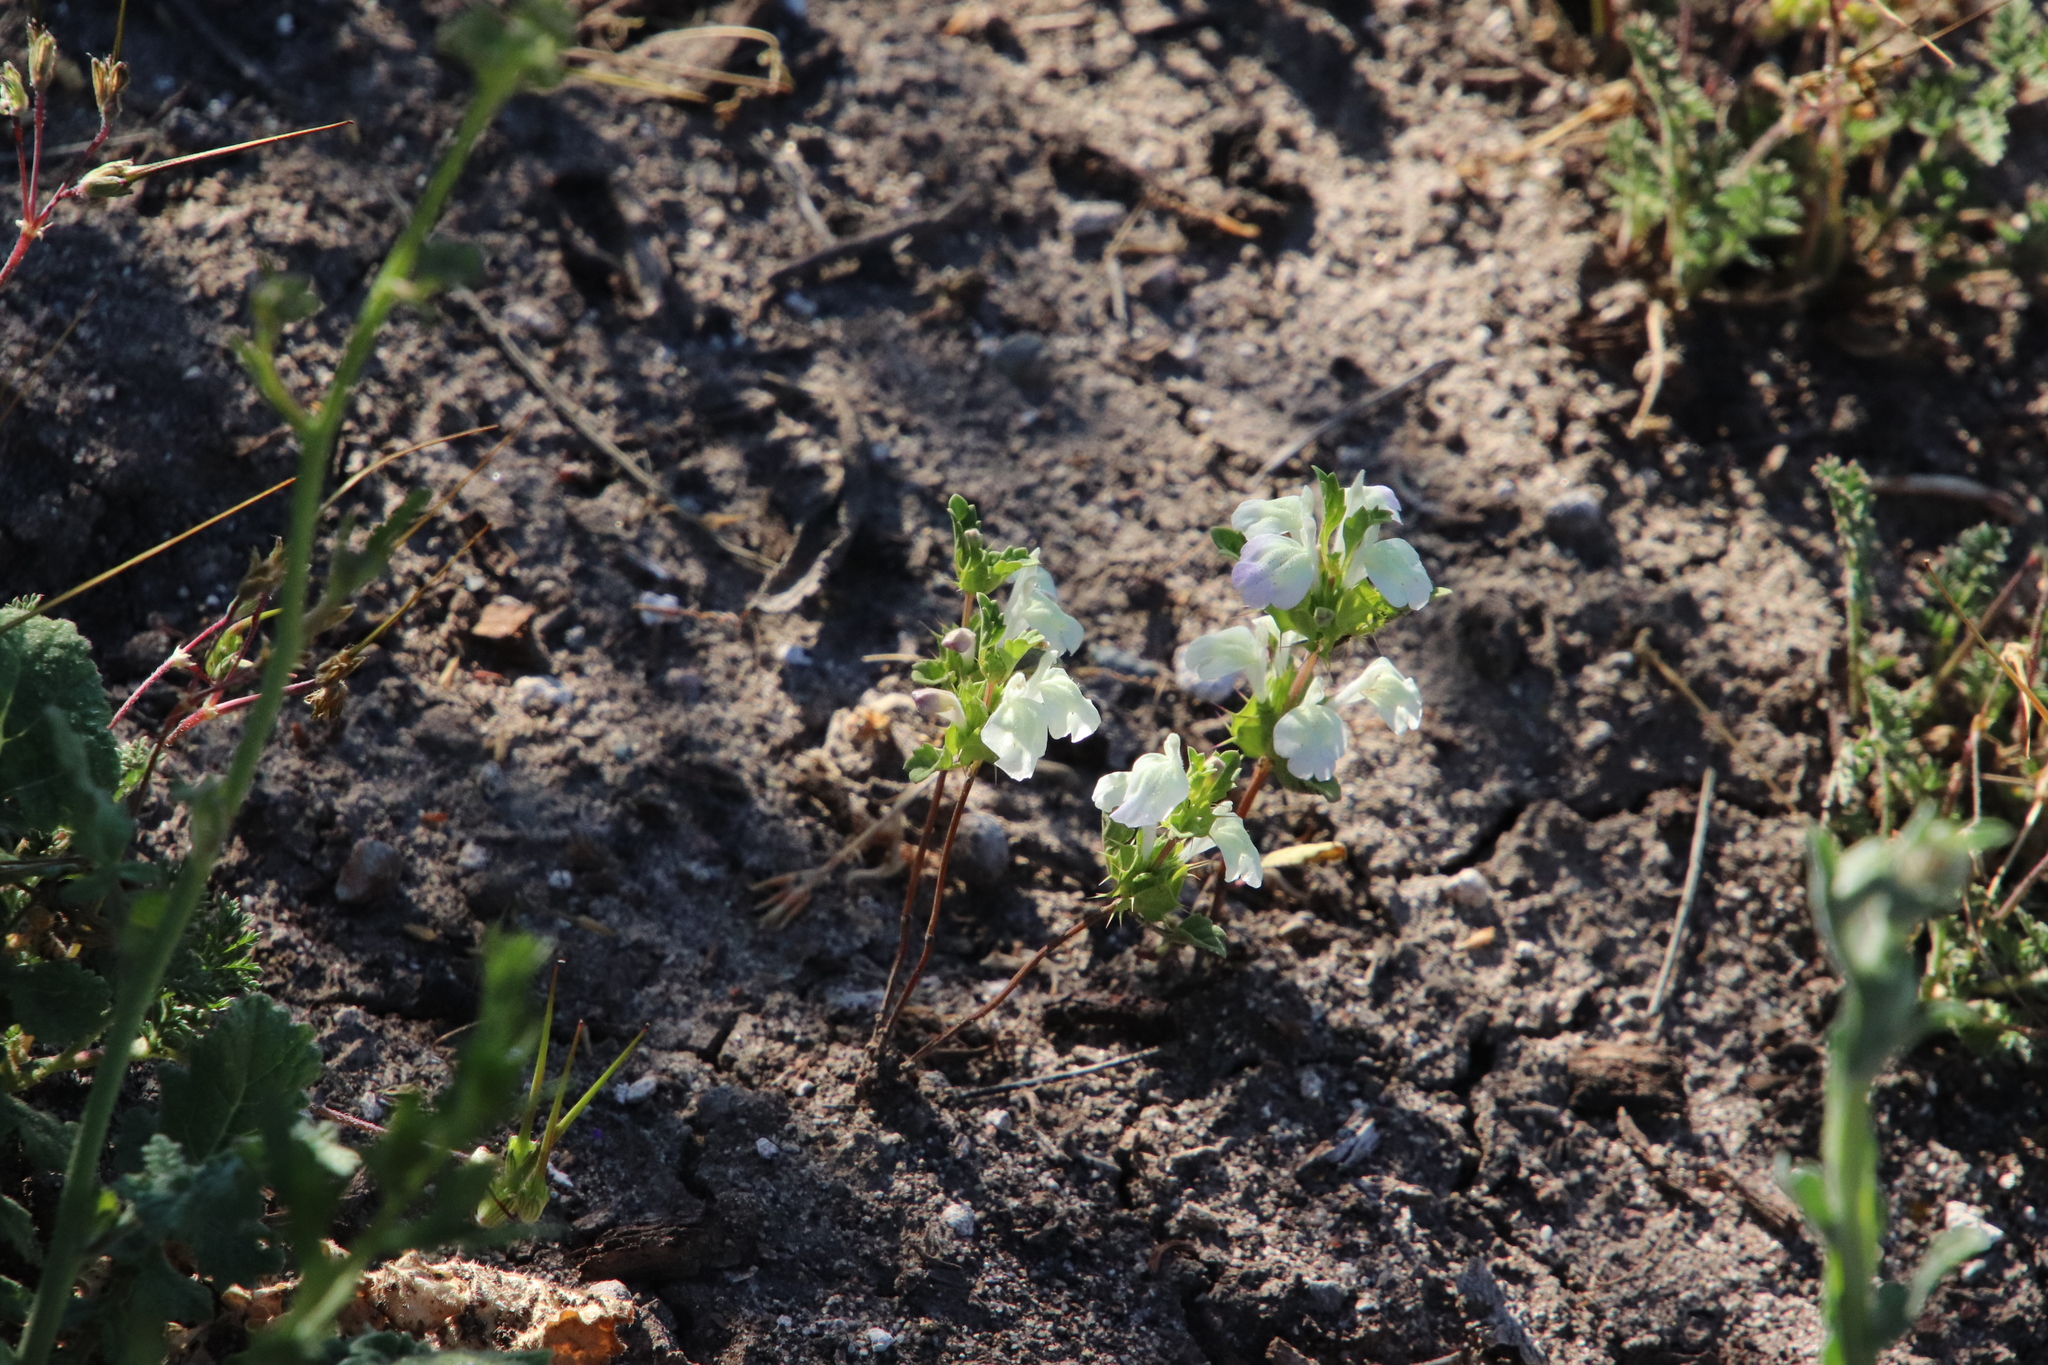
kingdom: Plantae
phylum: Tracheophyta
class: Magnoliopsida
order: Lamiales
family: Lamiaceae
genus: Acanthomintha
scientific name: Acanthomintha ilicifolia
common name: San diego thorn-mint
